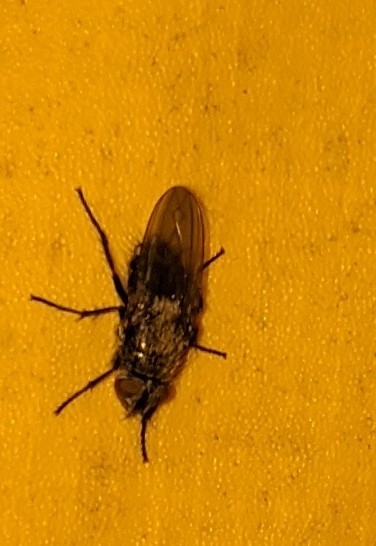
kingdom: Animalia
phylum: Arthropoda
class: Insecta
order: Diptera
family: Polleniidae
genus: Pollenia
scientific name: Pollenia
